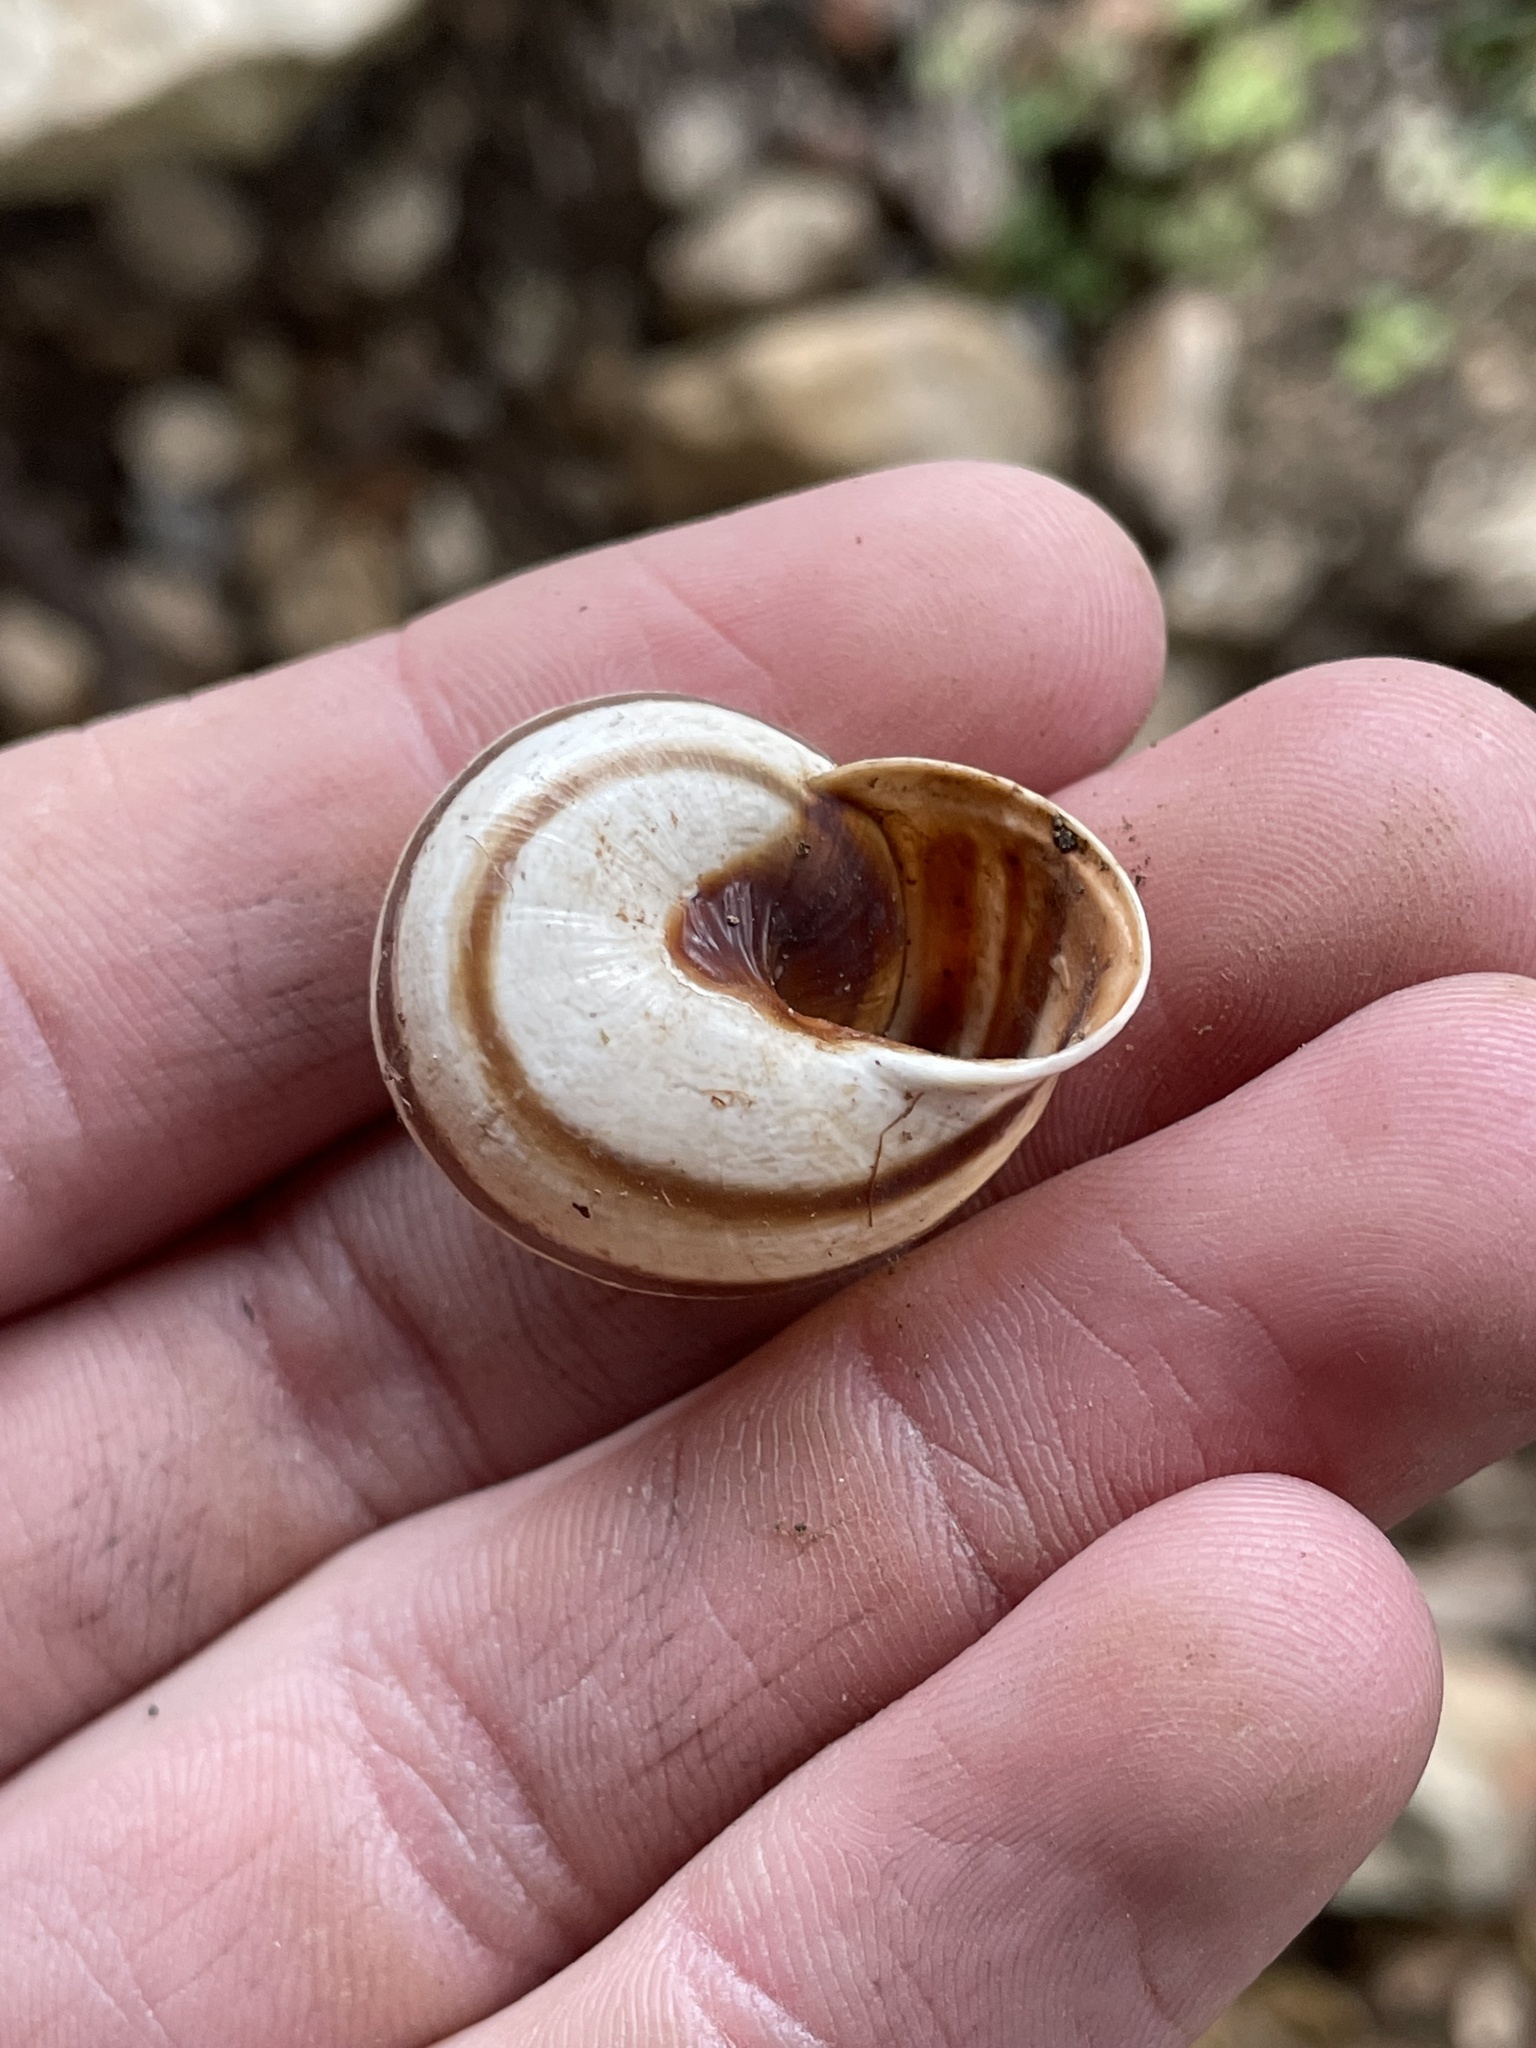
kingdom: Animalia
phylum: Mollusca
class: Gastropoda
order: Stylommatophora
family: Helicidae
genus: Otala
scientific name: Otala lactea
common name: Milk snail
